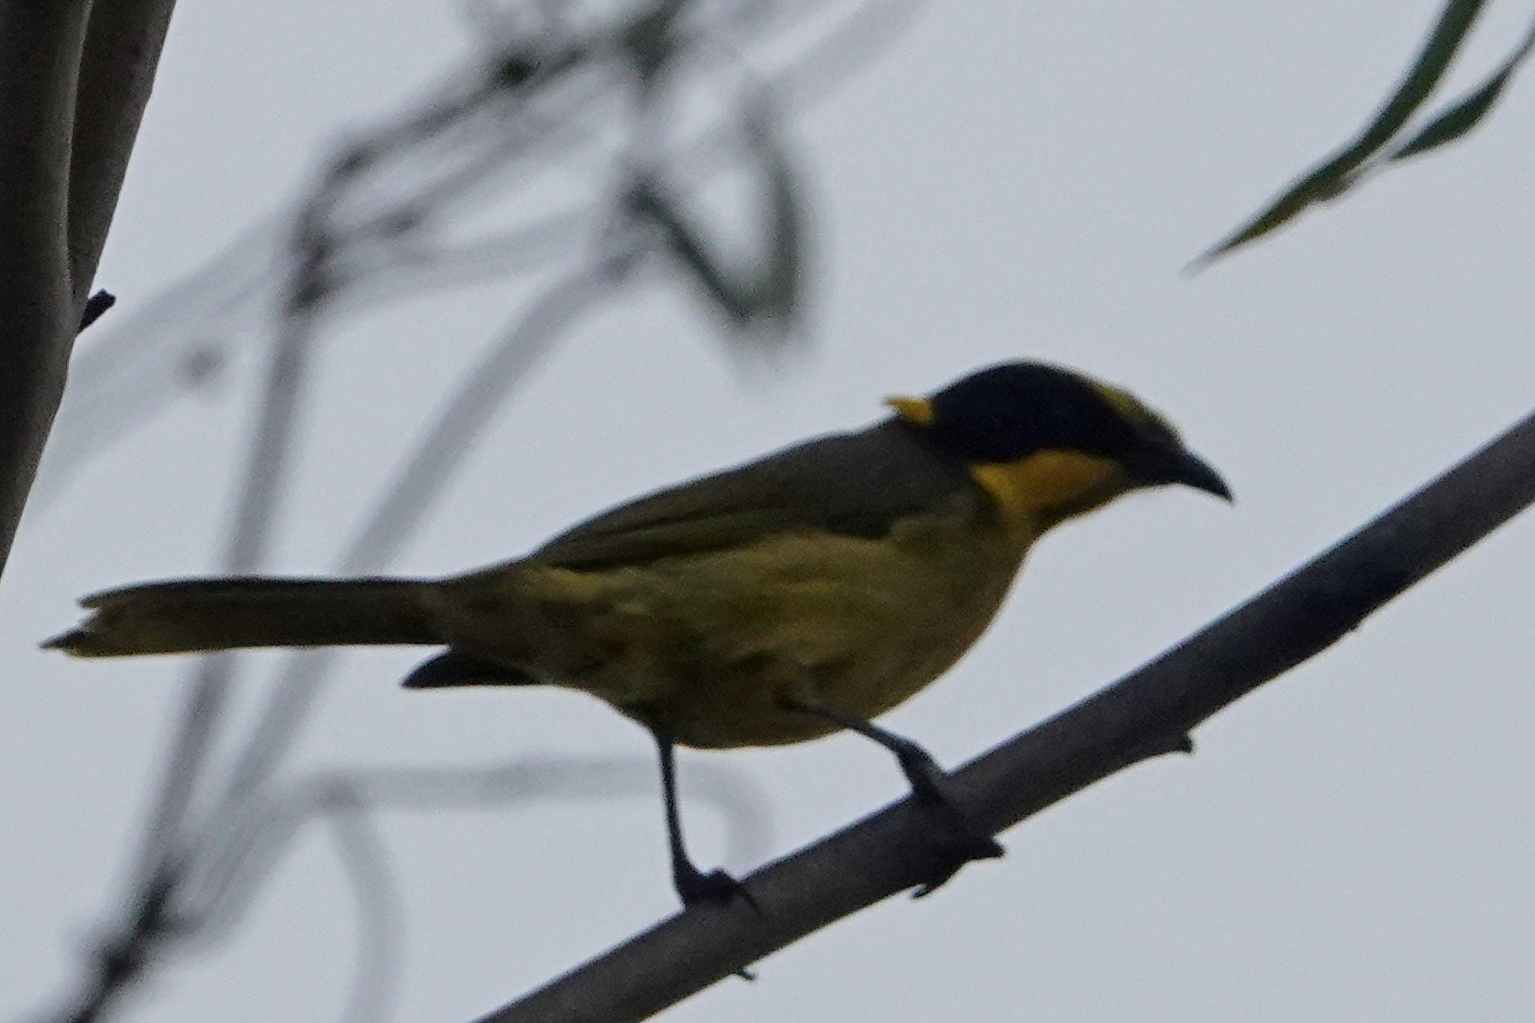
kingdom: Animalia
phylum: Chordata
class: Aves
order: Passeriformes
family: Meliphagidae
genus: Lichenostomus
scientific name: Lichenostomus melanops
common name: Yellow-tufted honeyeater
